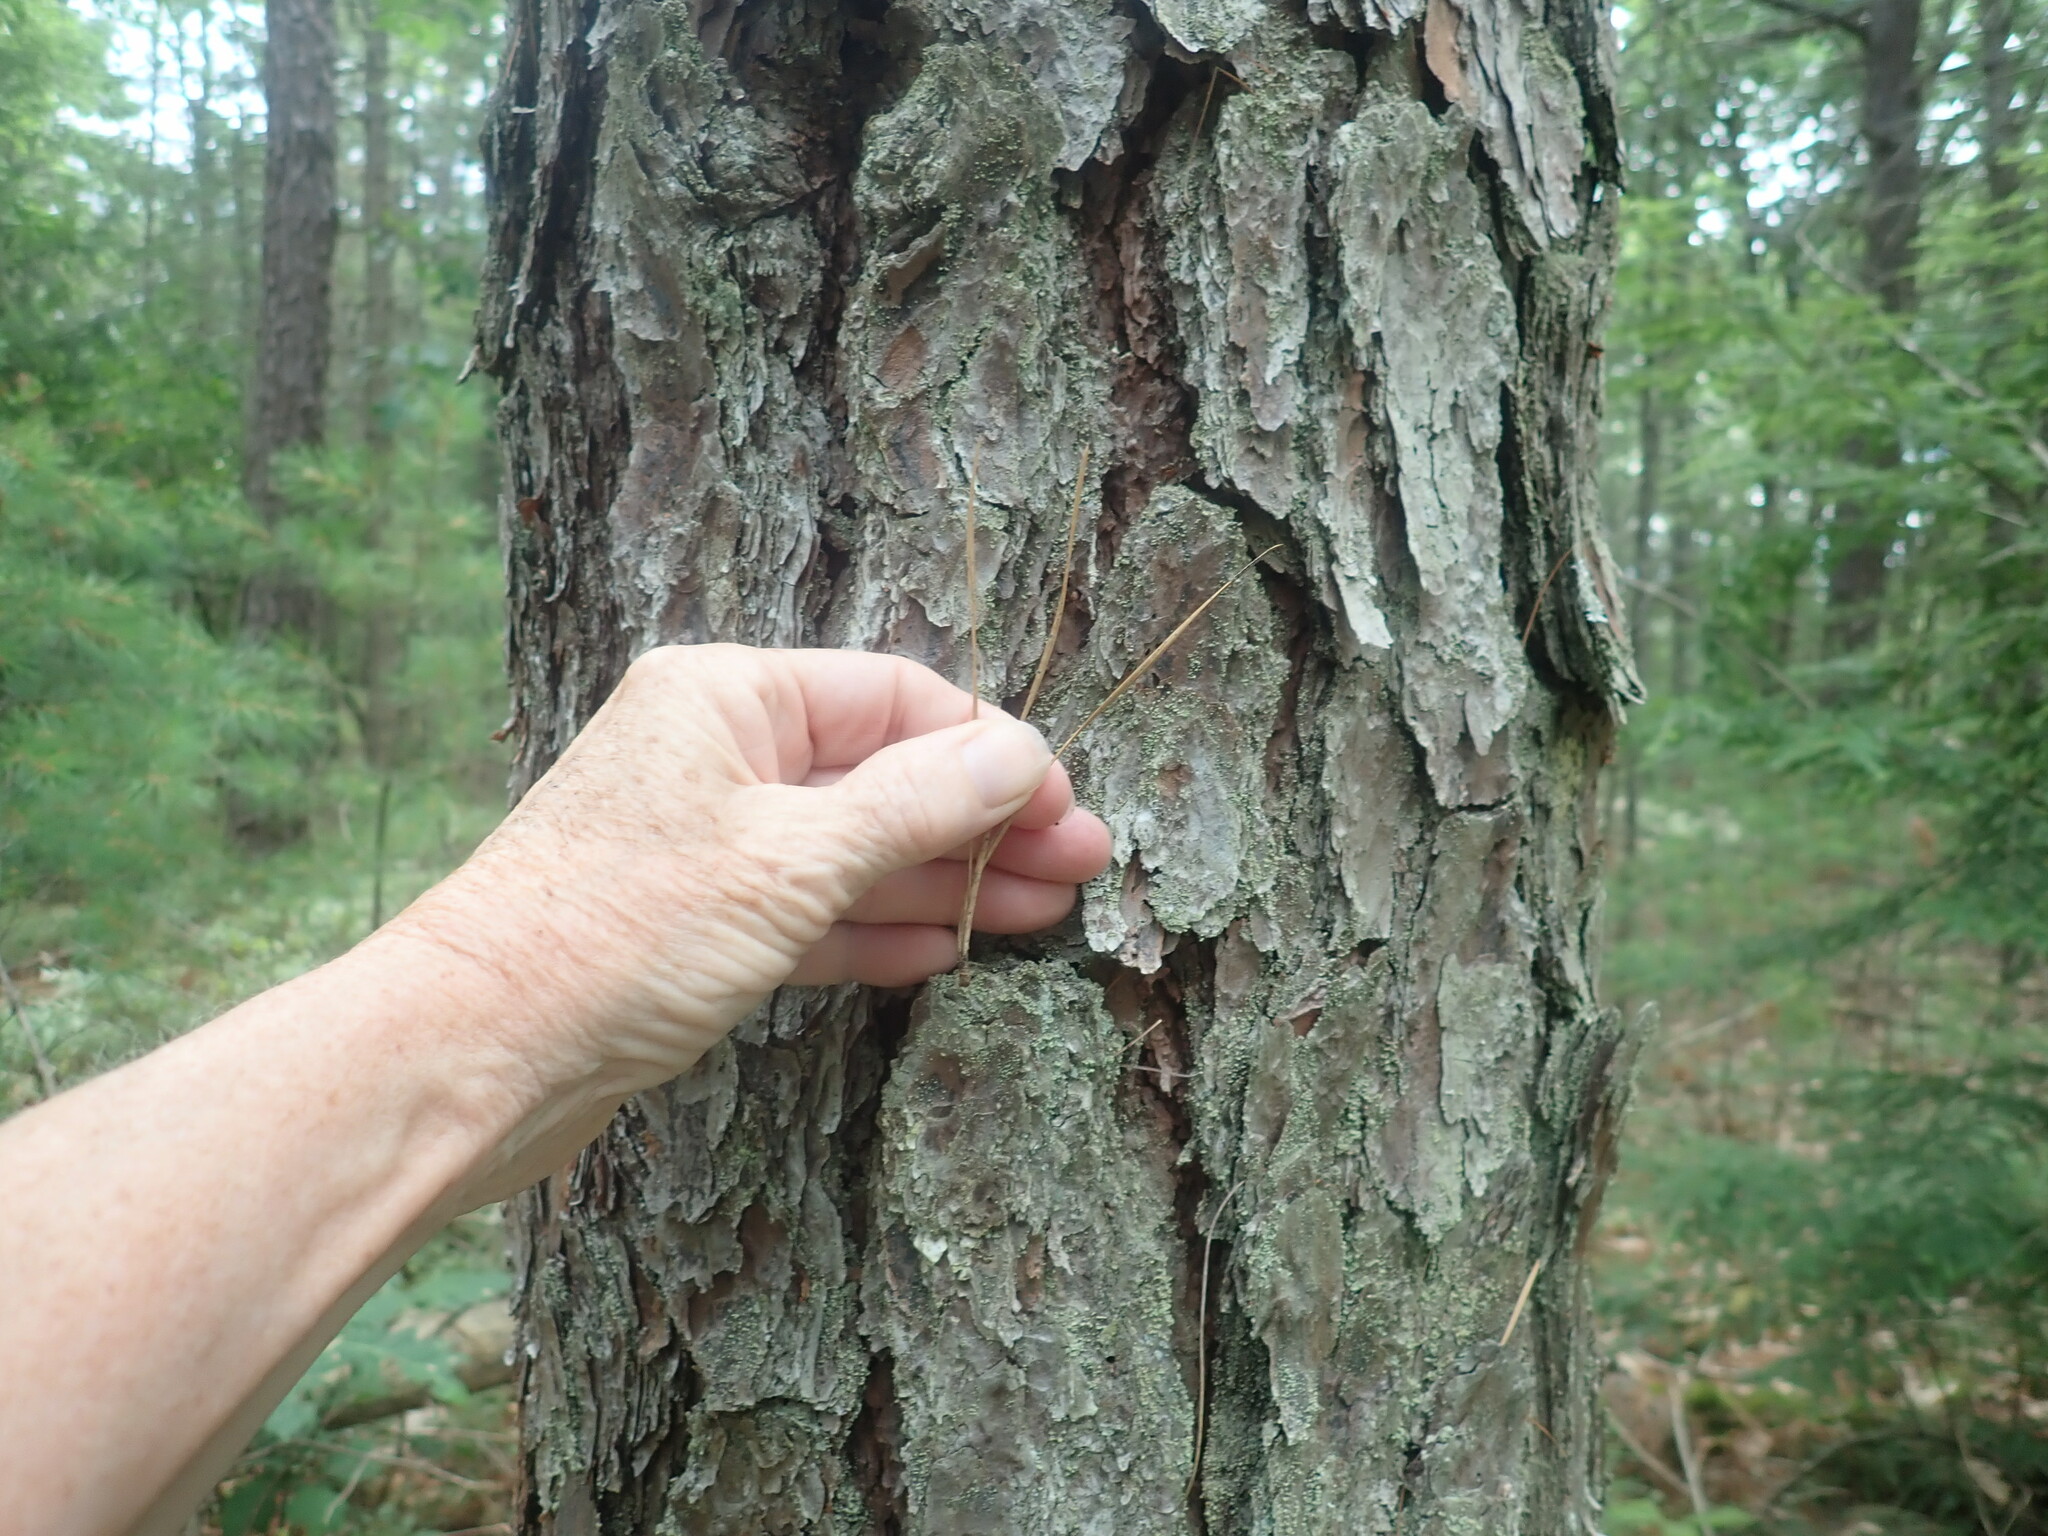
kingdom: Plantae
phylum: Tracheophyta
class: Pinopsida
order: Pinales
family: Pinaceae
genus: Pinus
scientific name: Pinus rigida
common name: Pitch pine
